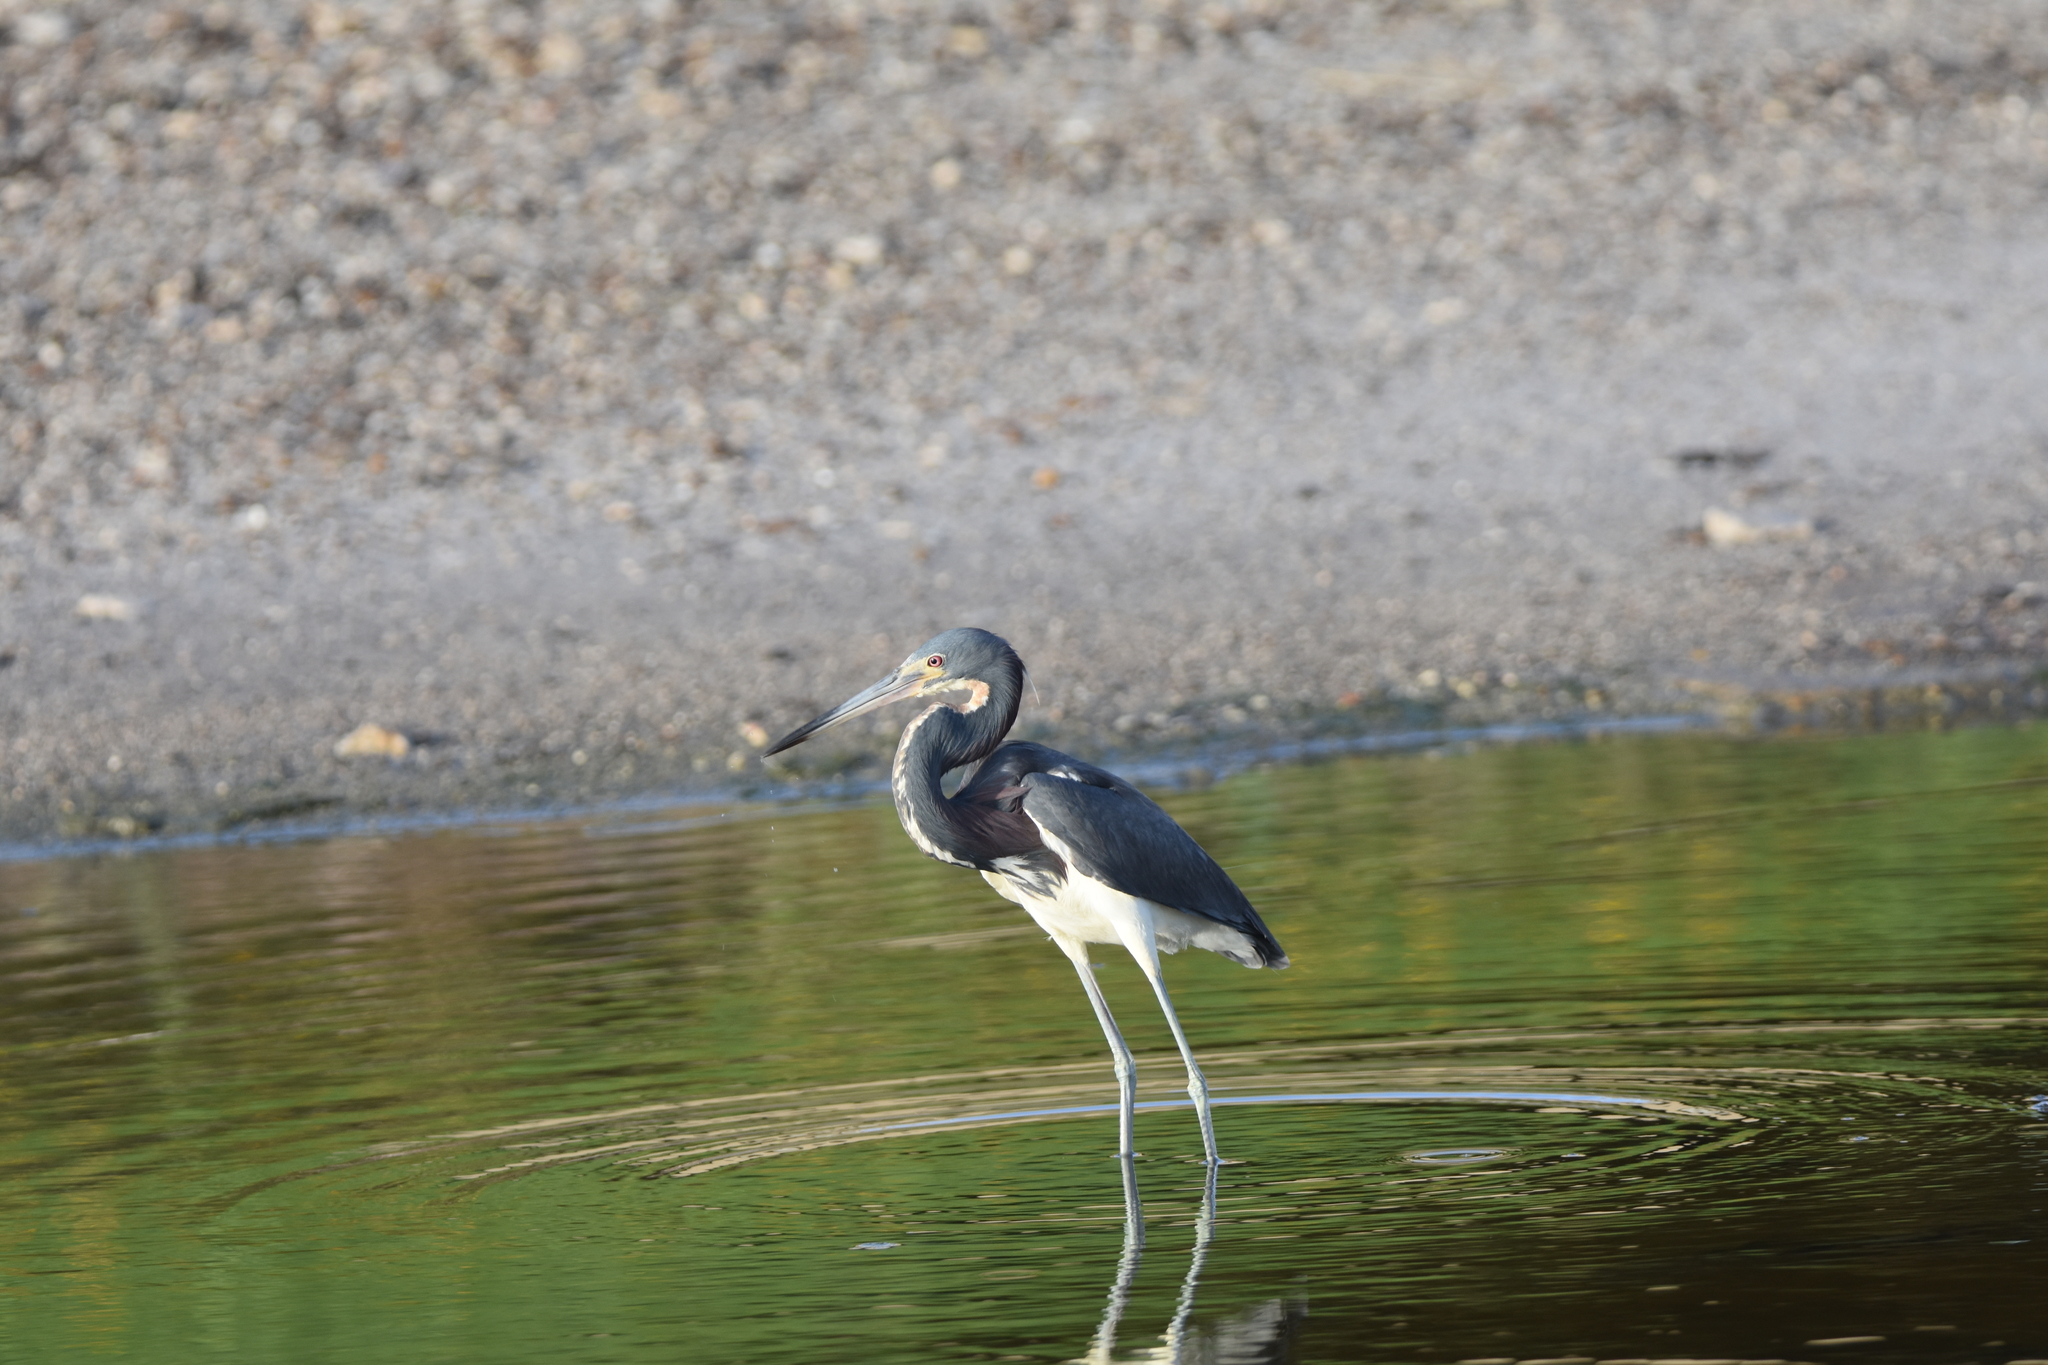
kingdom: Animalia
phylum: Chordata
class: Aves
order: Pelecaniformes
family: Ardeidae
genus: Egretta
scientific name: Egretta tricolor
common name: Tricolored heron
